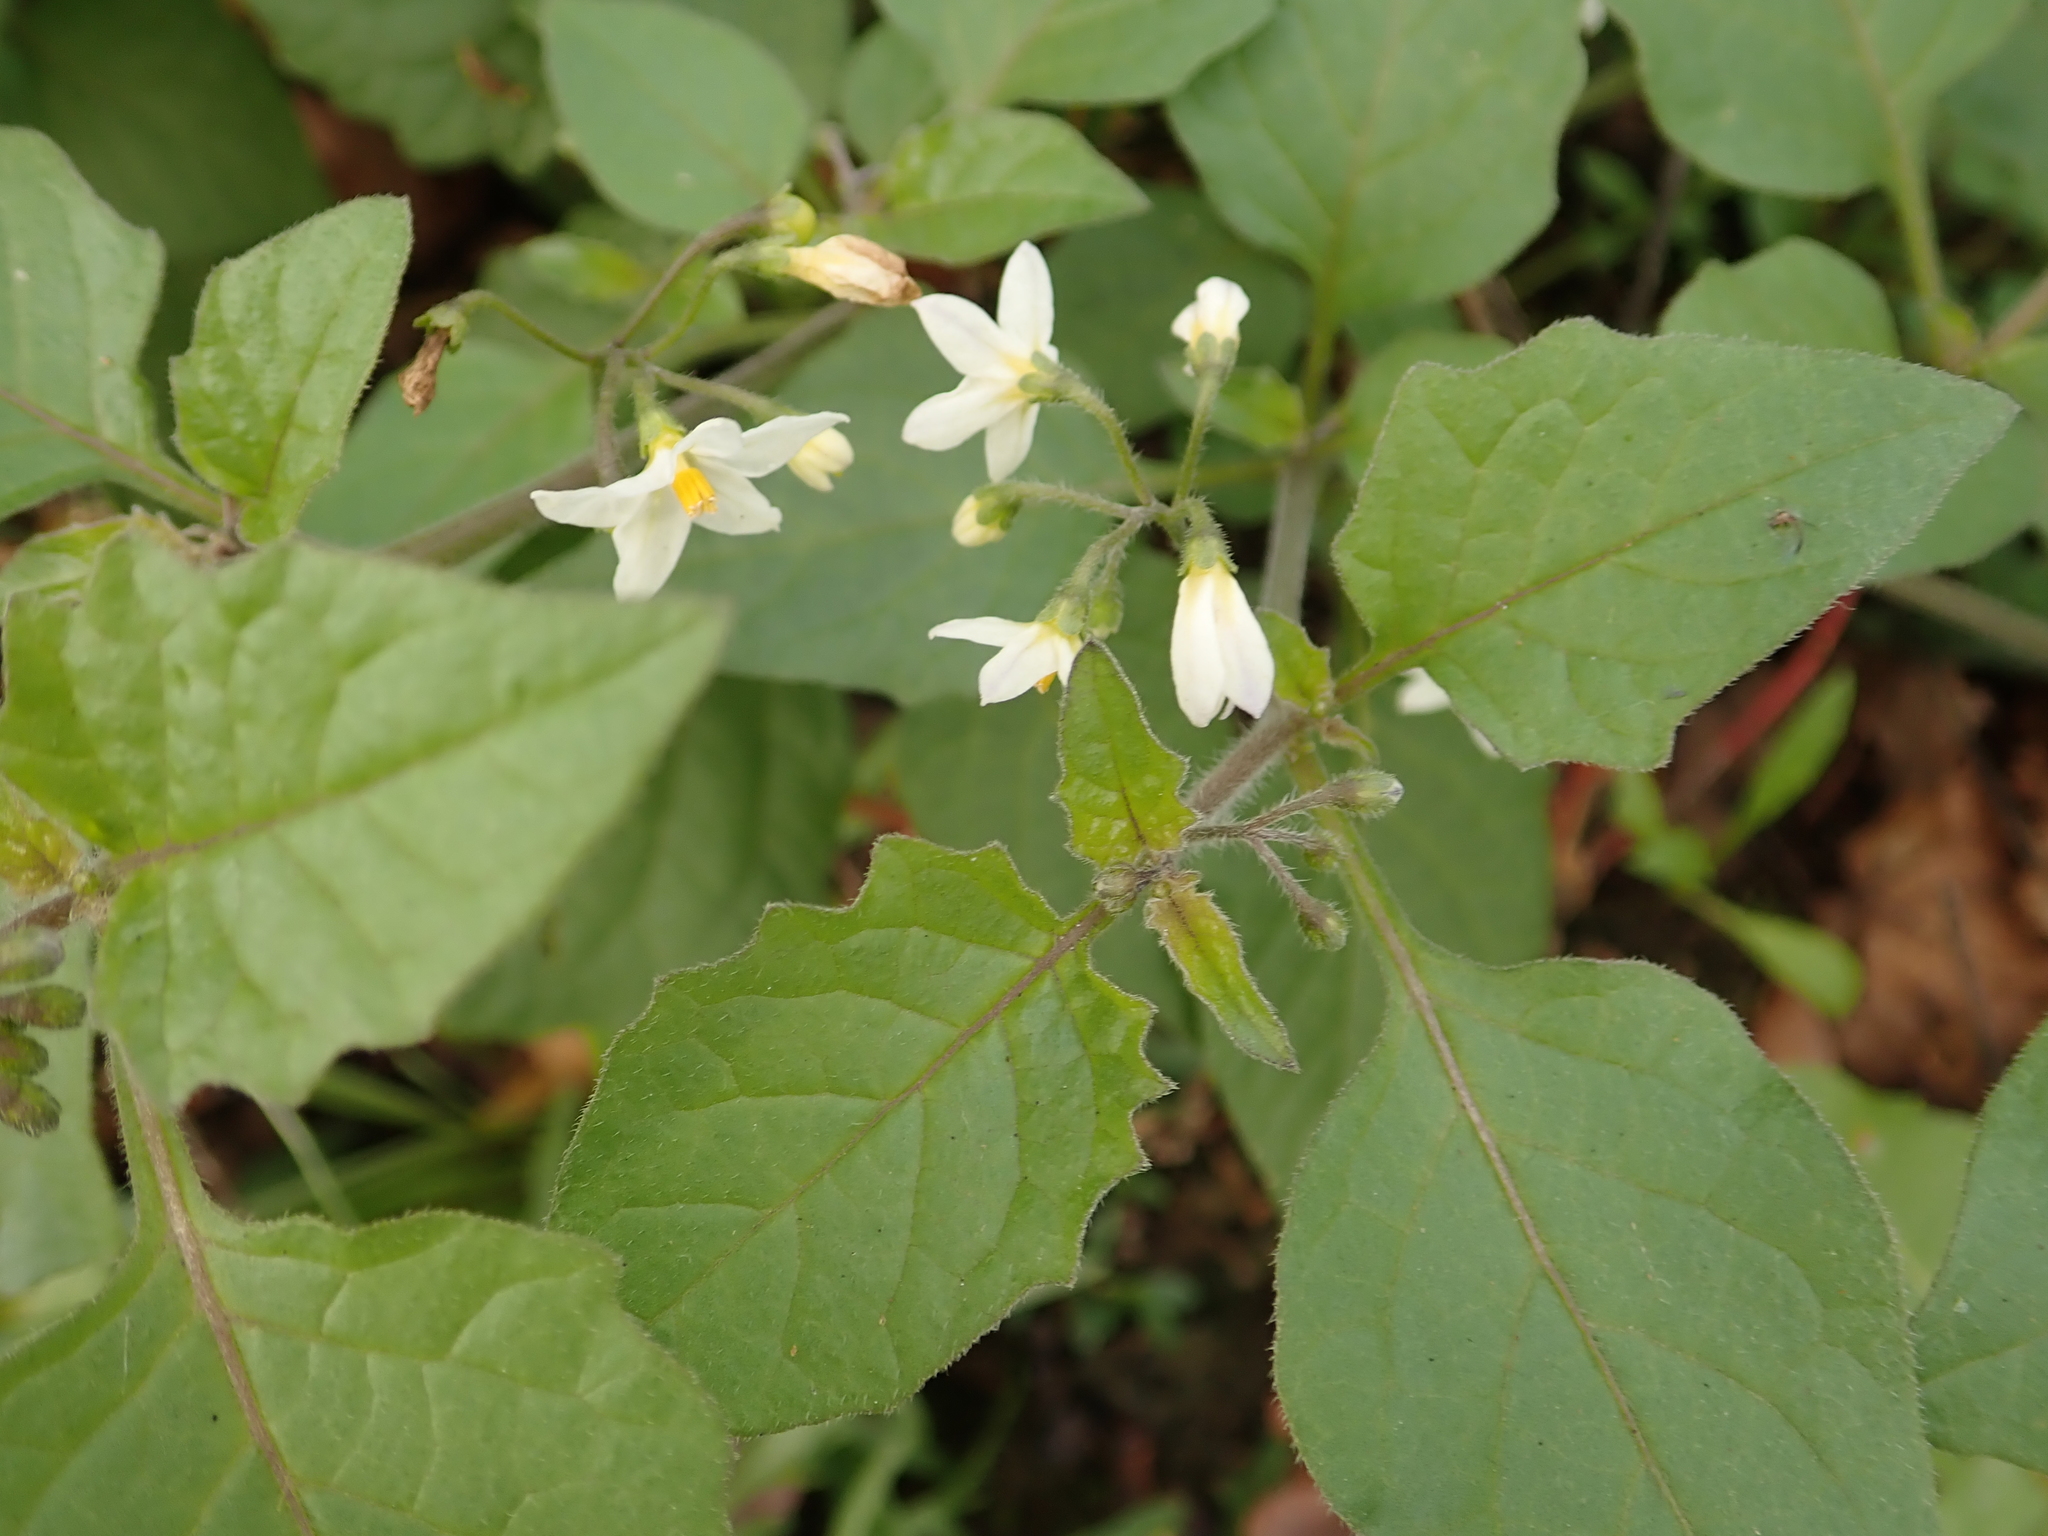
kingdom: Plantae
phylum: Tracheophyta
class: Magnoliopsida
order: Solanales
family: Solanaceae
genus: Solanum
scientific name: Solanum nigrum
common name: Black nightshade
